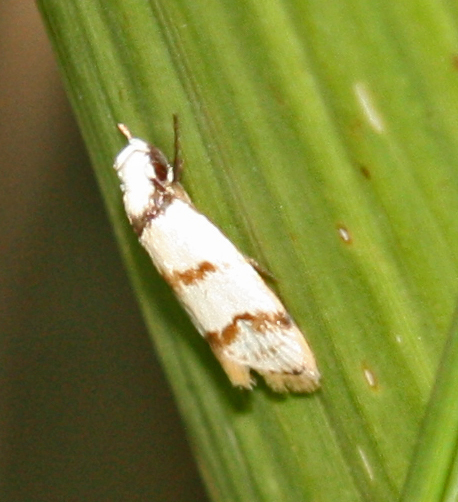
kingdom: Animalia
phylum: Arthropoda
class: Insecta
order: Lepidoptera
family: Oecophoridae
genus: Chezala
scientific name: Chezala brachypepla
